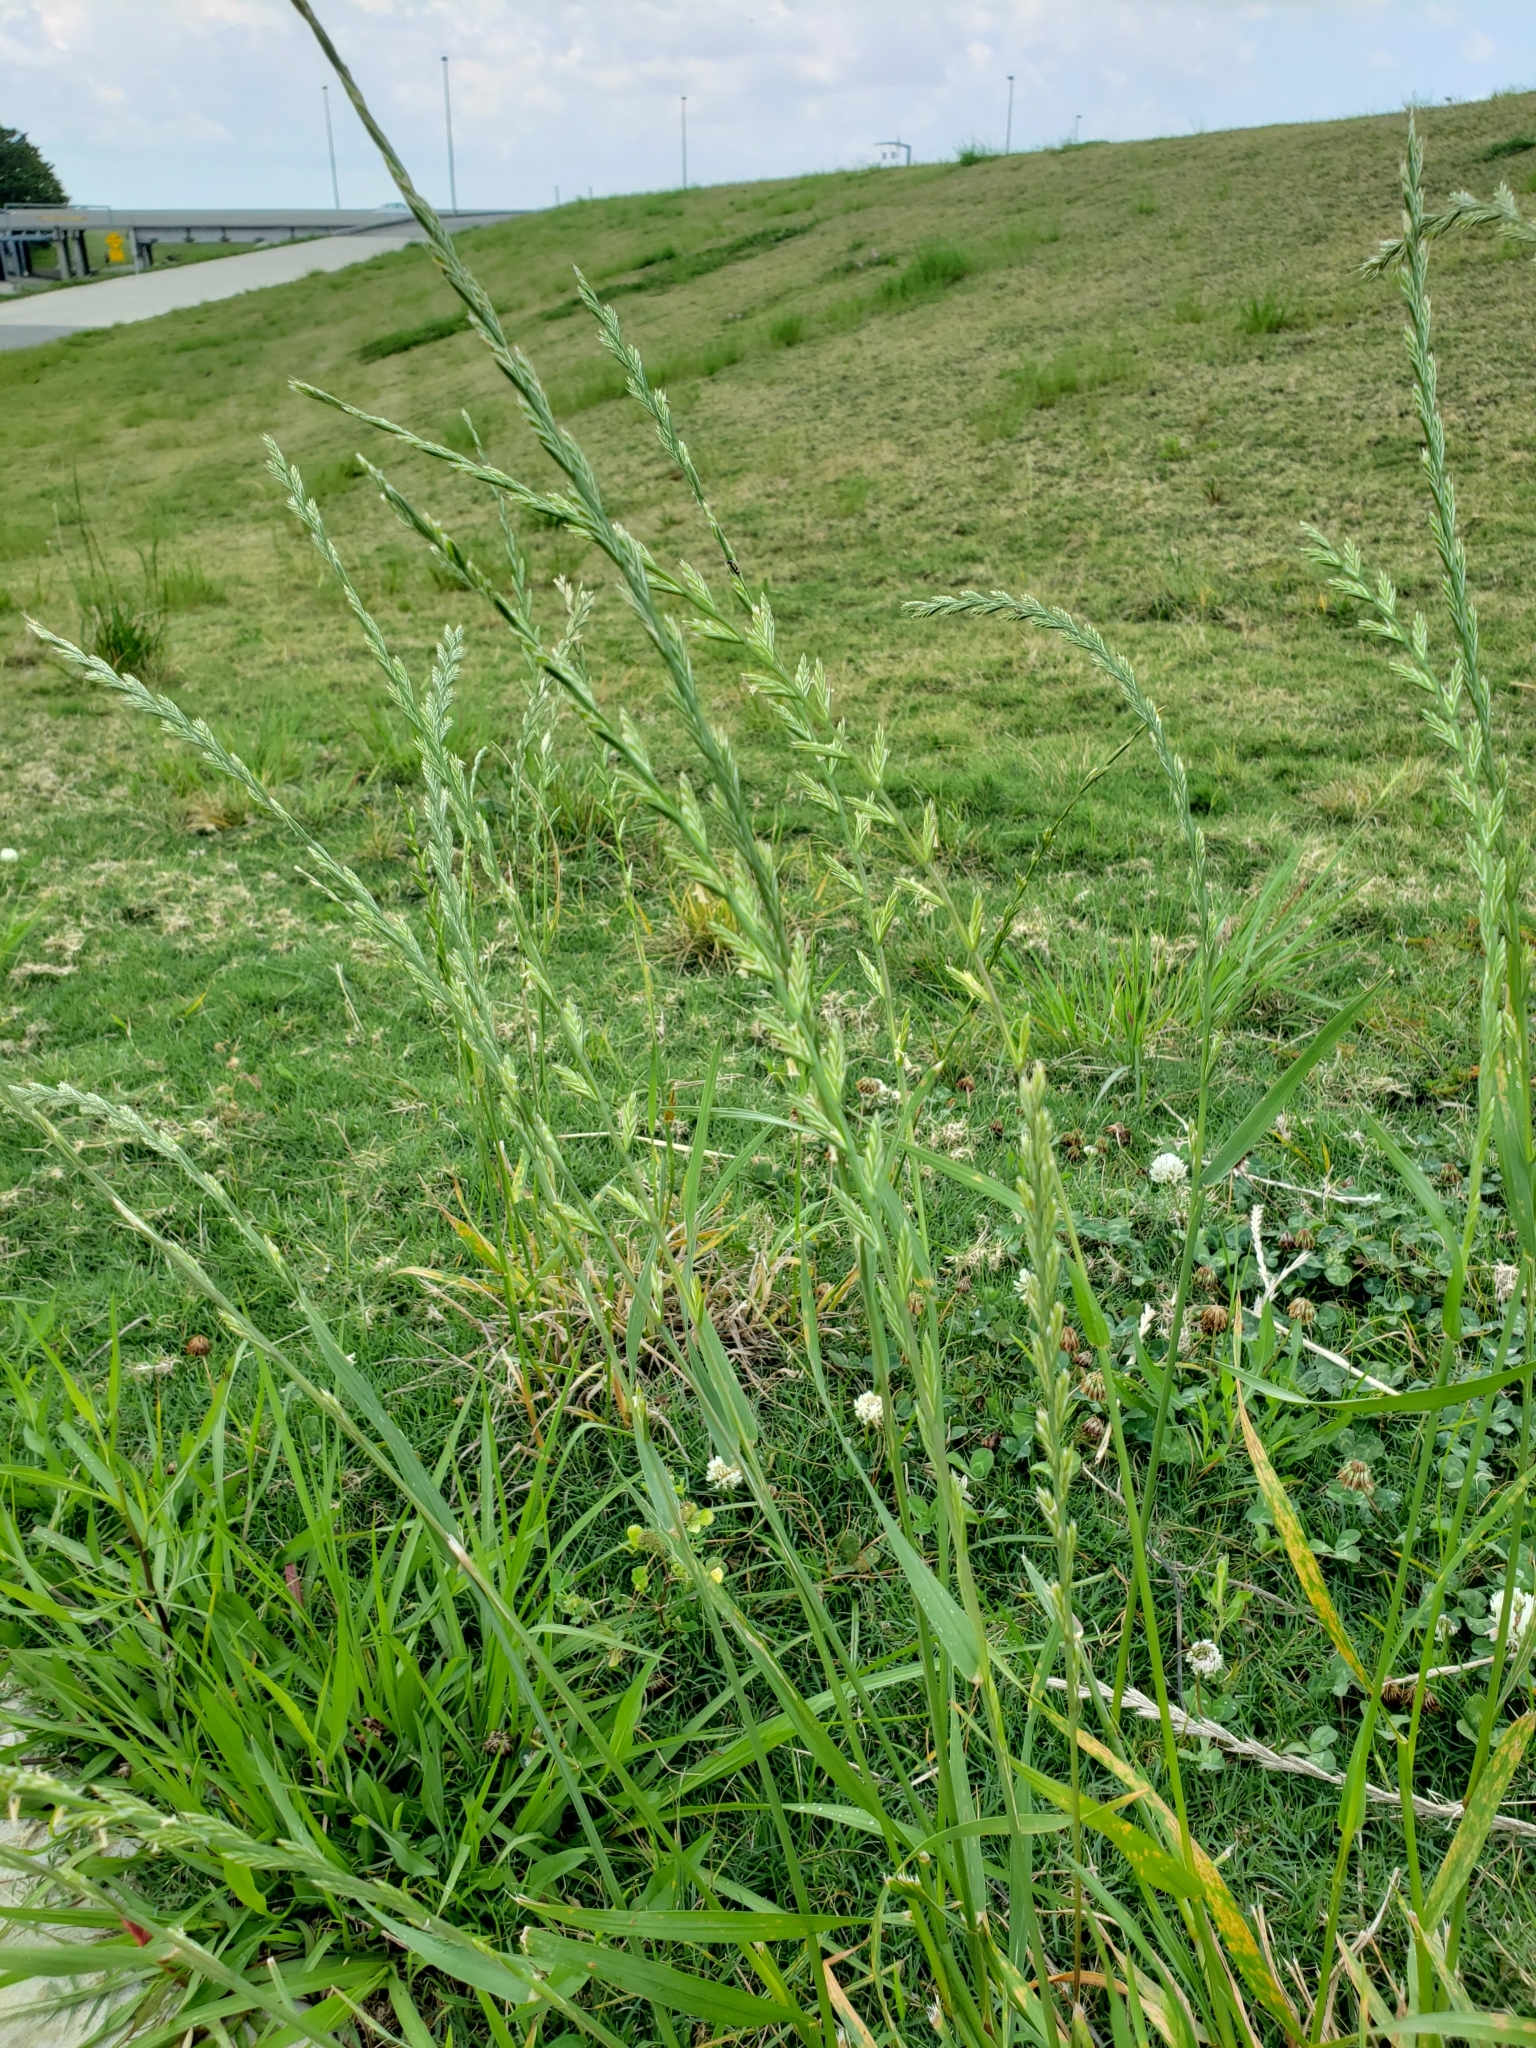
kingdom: Plantae
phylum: Tracheophyta
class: Liliopsida
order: Poales
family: Poaceae
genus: Lolium
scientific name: Lolium perenne
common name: Perennial ryegrass
